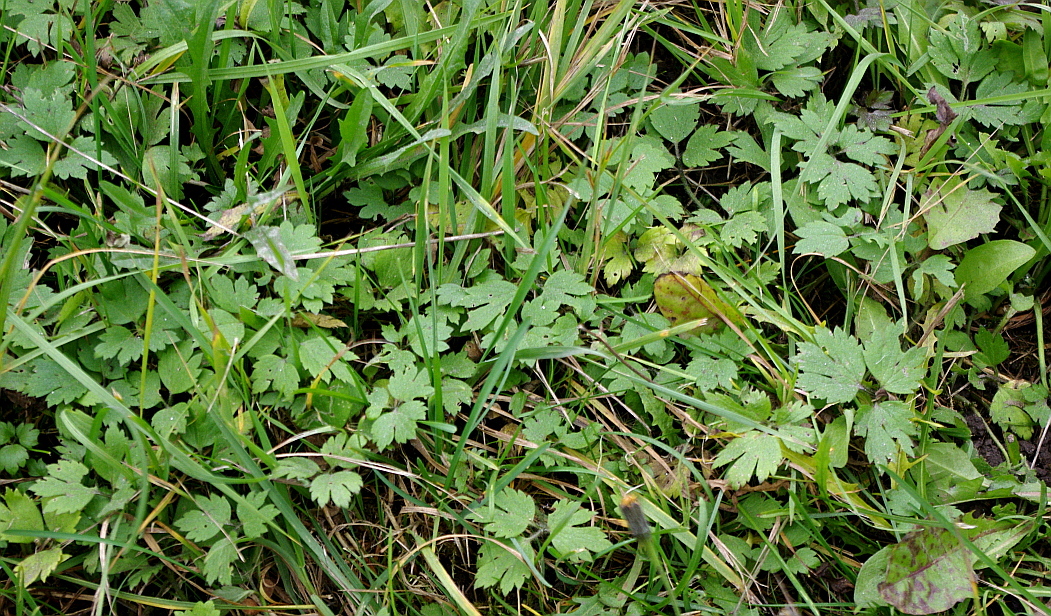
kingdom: Plantae
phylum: Tracheophyta
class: Magnoliopsida
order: Ranunculales
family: Ranunculaceae
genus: Ranunculus
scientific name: Ranunculus repens
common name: Creeping buttercup
